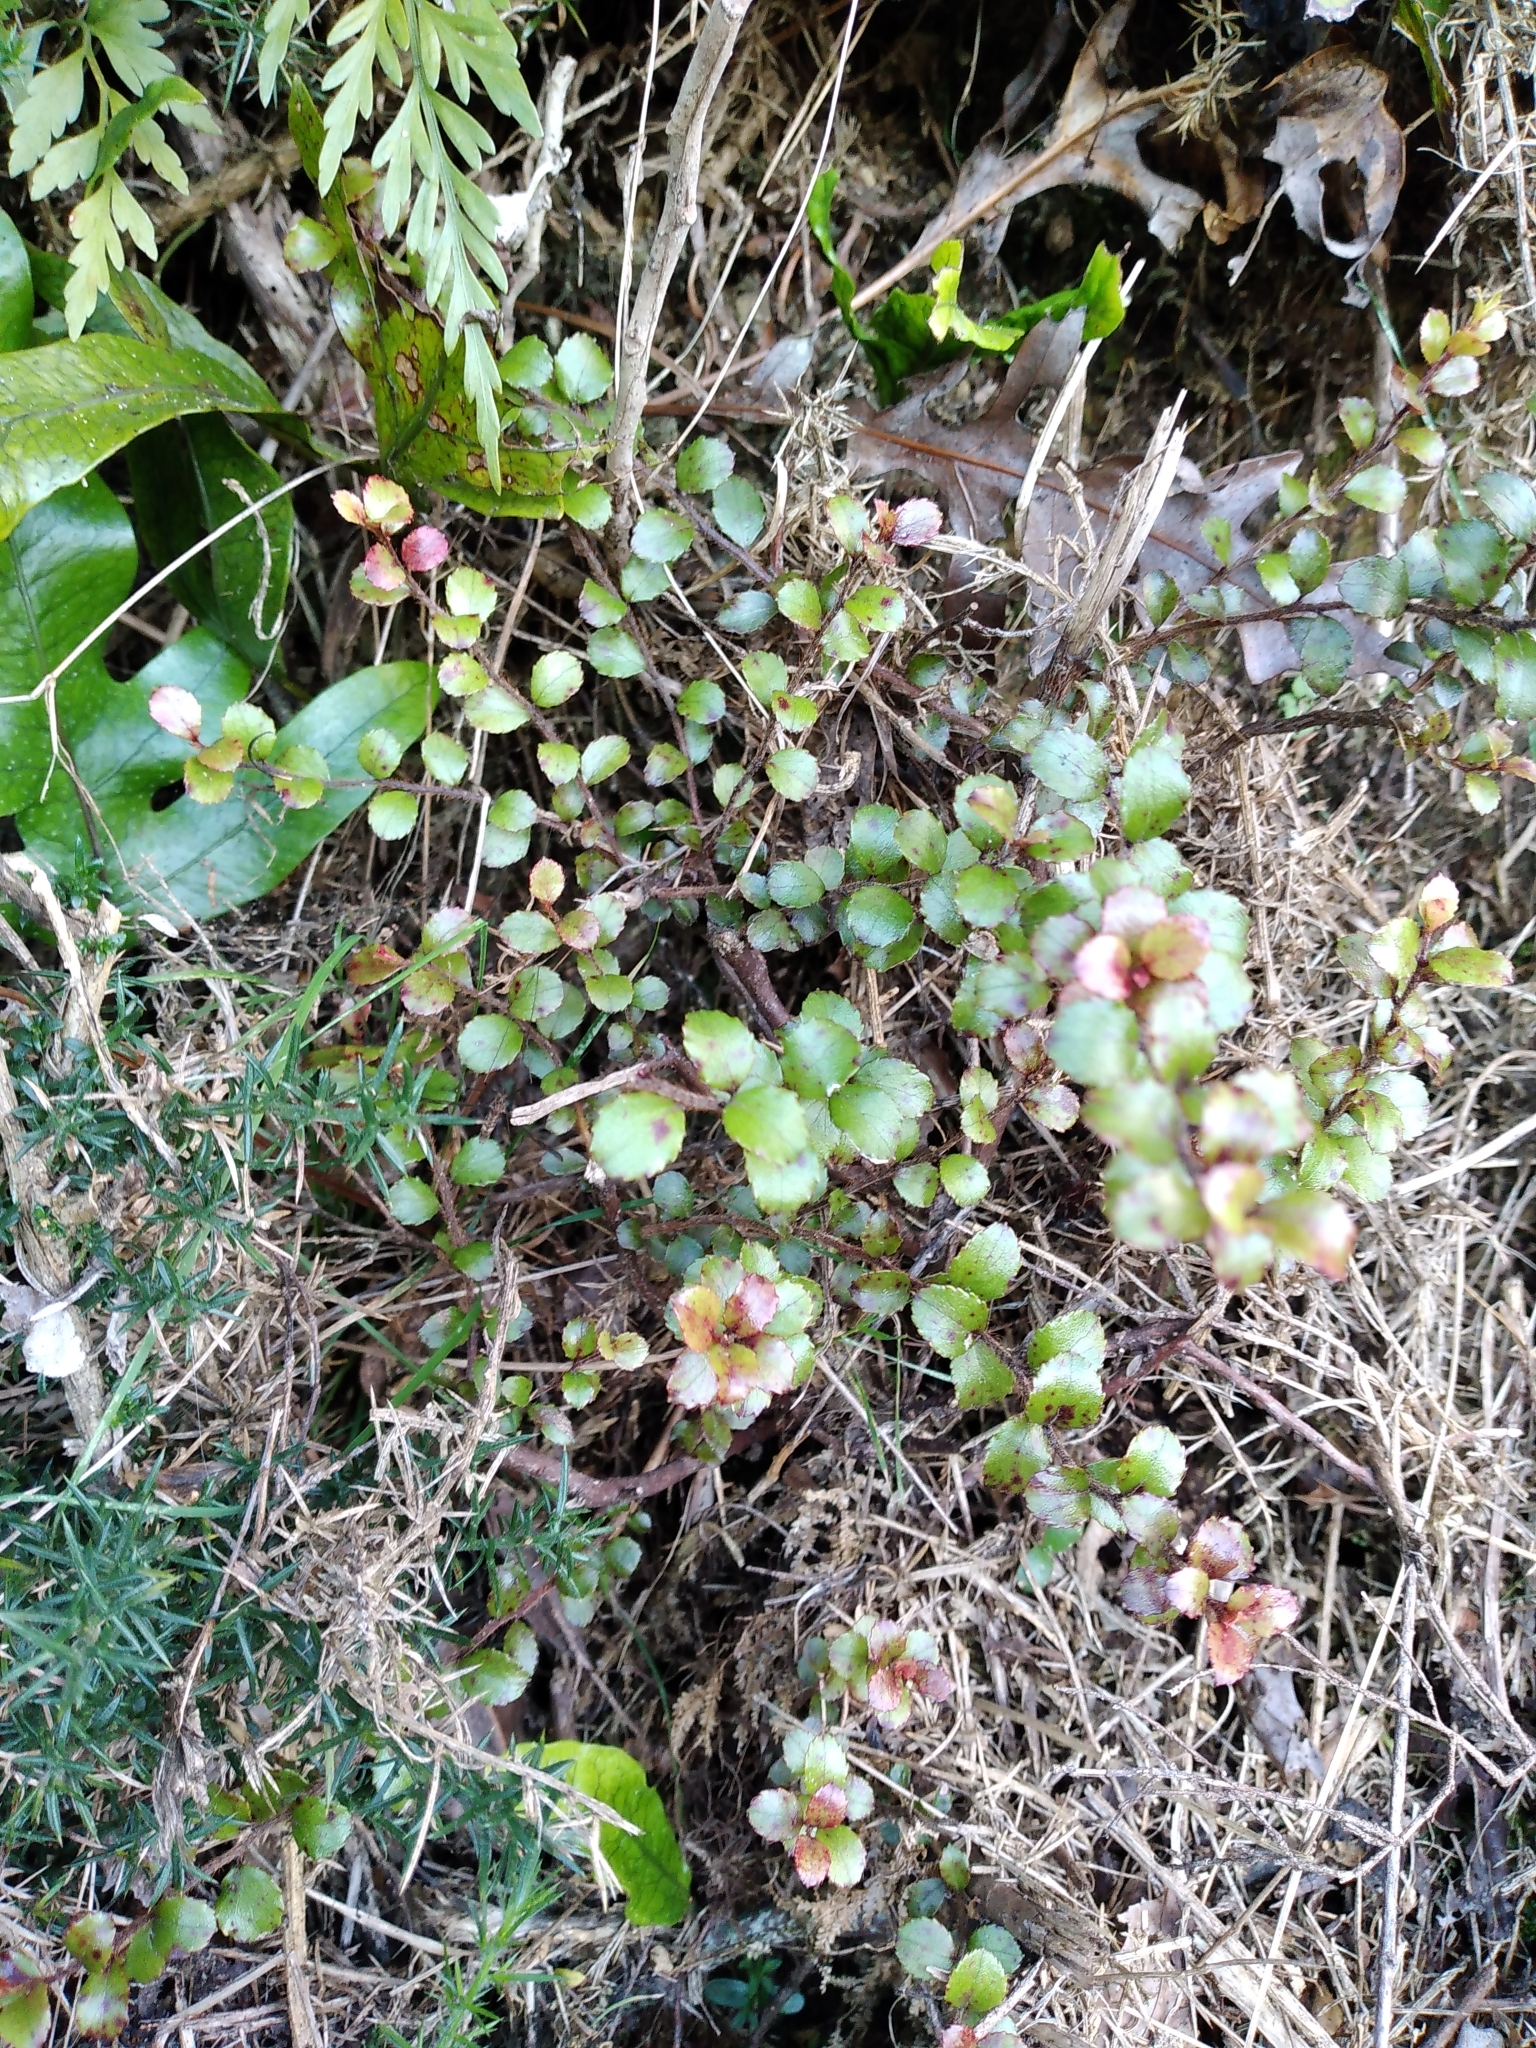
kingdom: Plantae
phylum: Tracheophyta
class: Magnoliopsida
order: Ericales
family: Ericaceae
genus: Gaultheria
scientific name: Gaultheria antipoda
